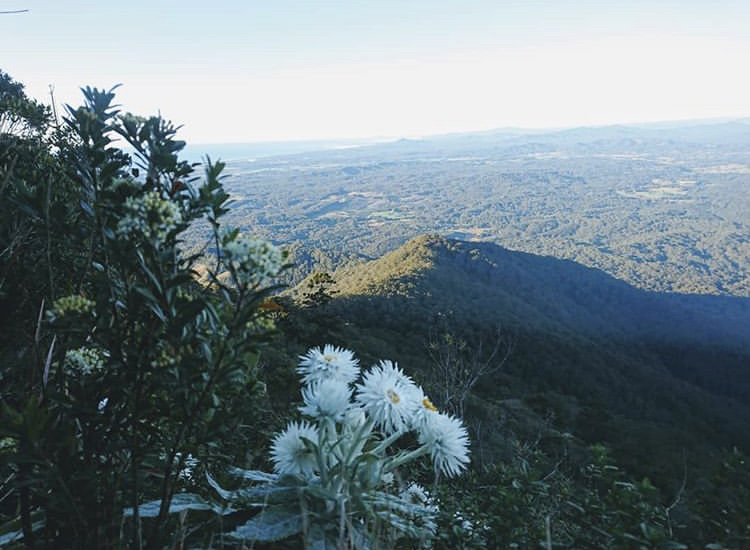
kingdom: Plantae
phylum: Tracheophyta
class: Magnoliopsida
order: Asterales
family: Asteraceae
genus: Leucozoma
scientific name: Leucozoma elatum
